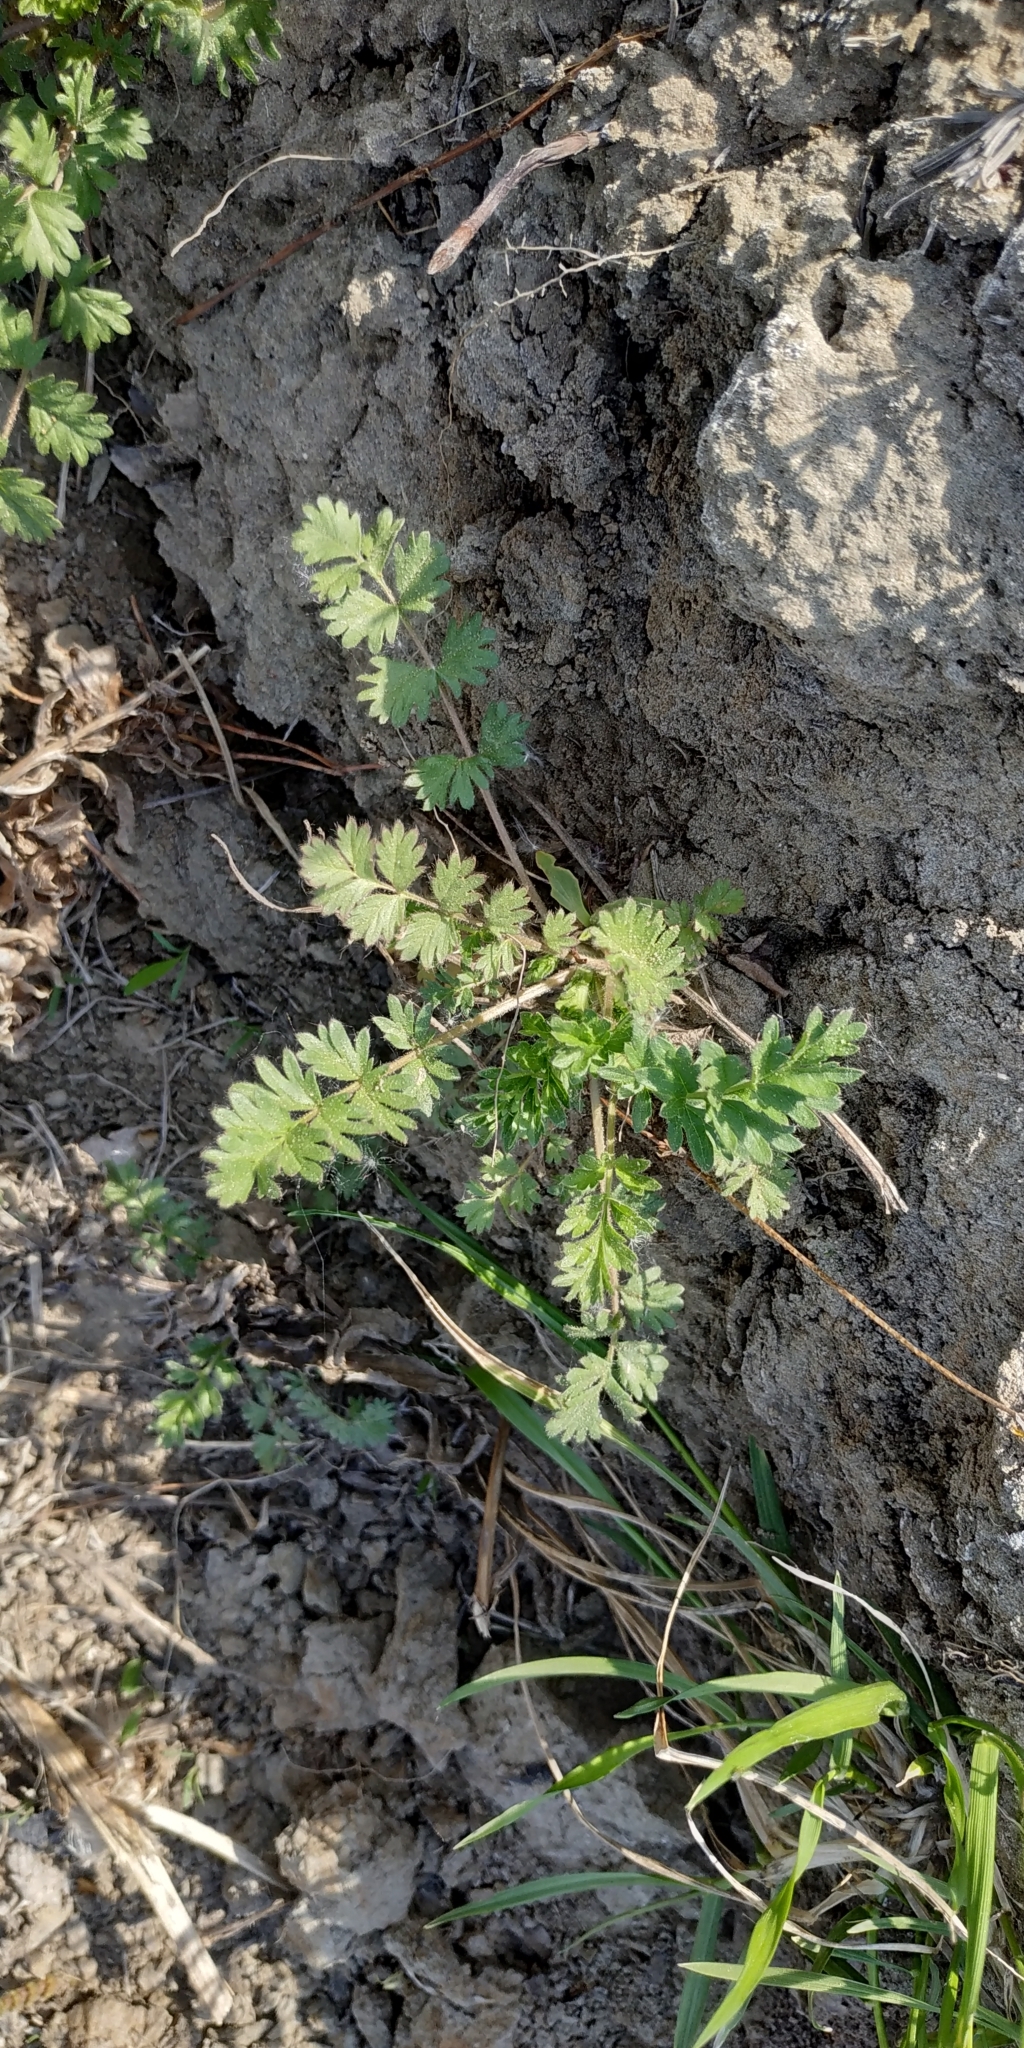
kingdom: Plantae
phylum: Tracheophyta
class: Magnoliopsida
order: Rosales
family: Rosaceae
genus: Potentilla
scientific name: Potentilla supina
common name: Prostrate cinquefoil
